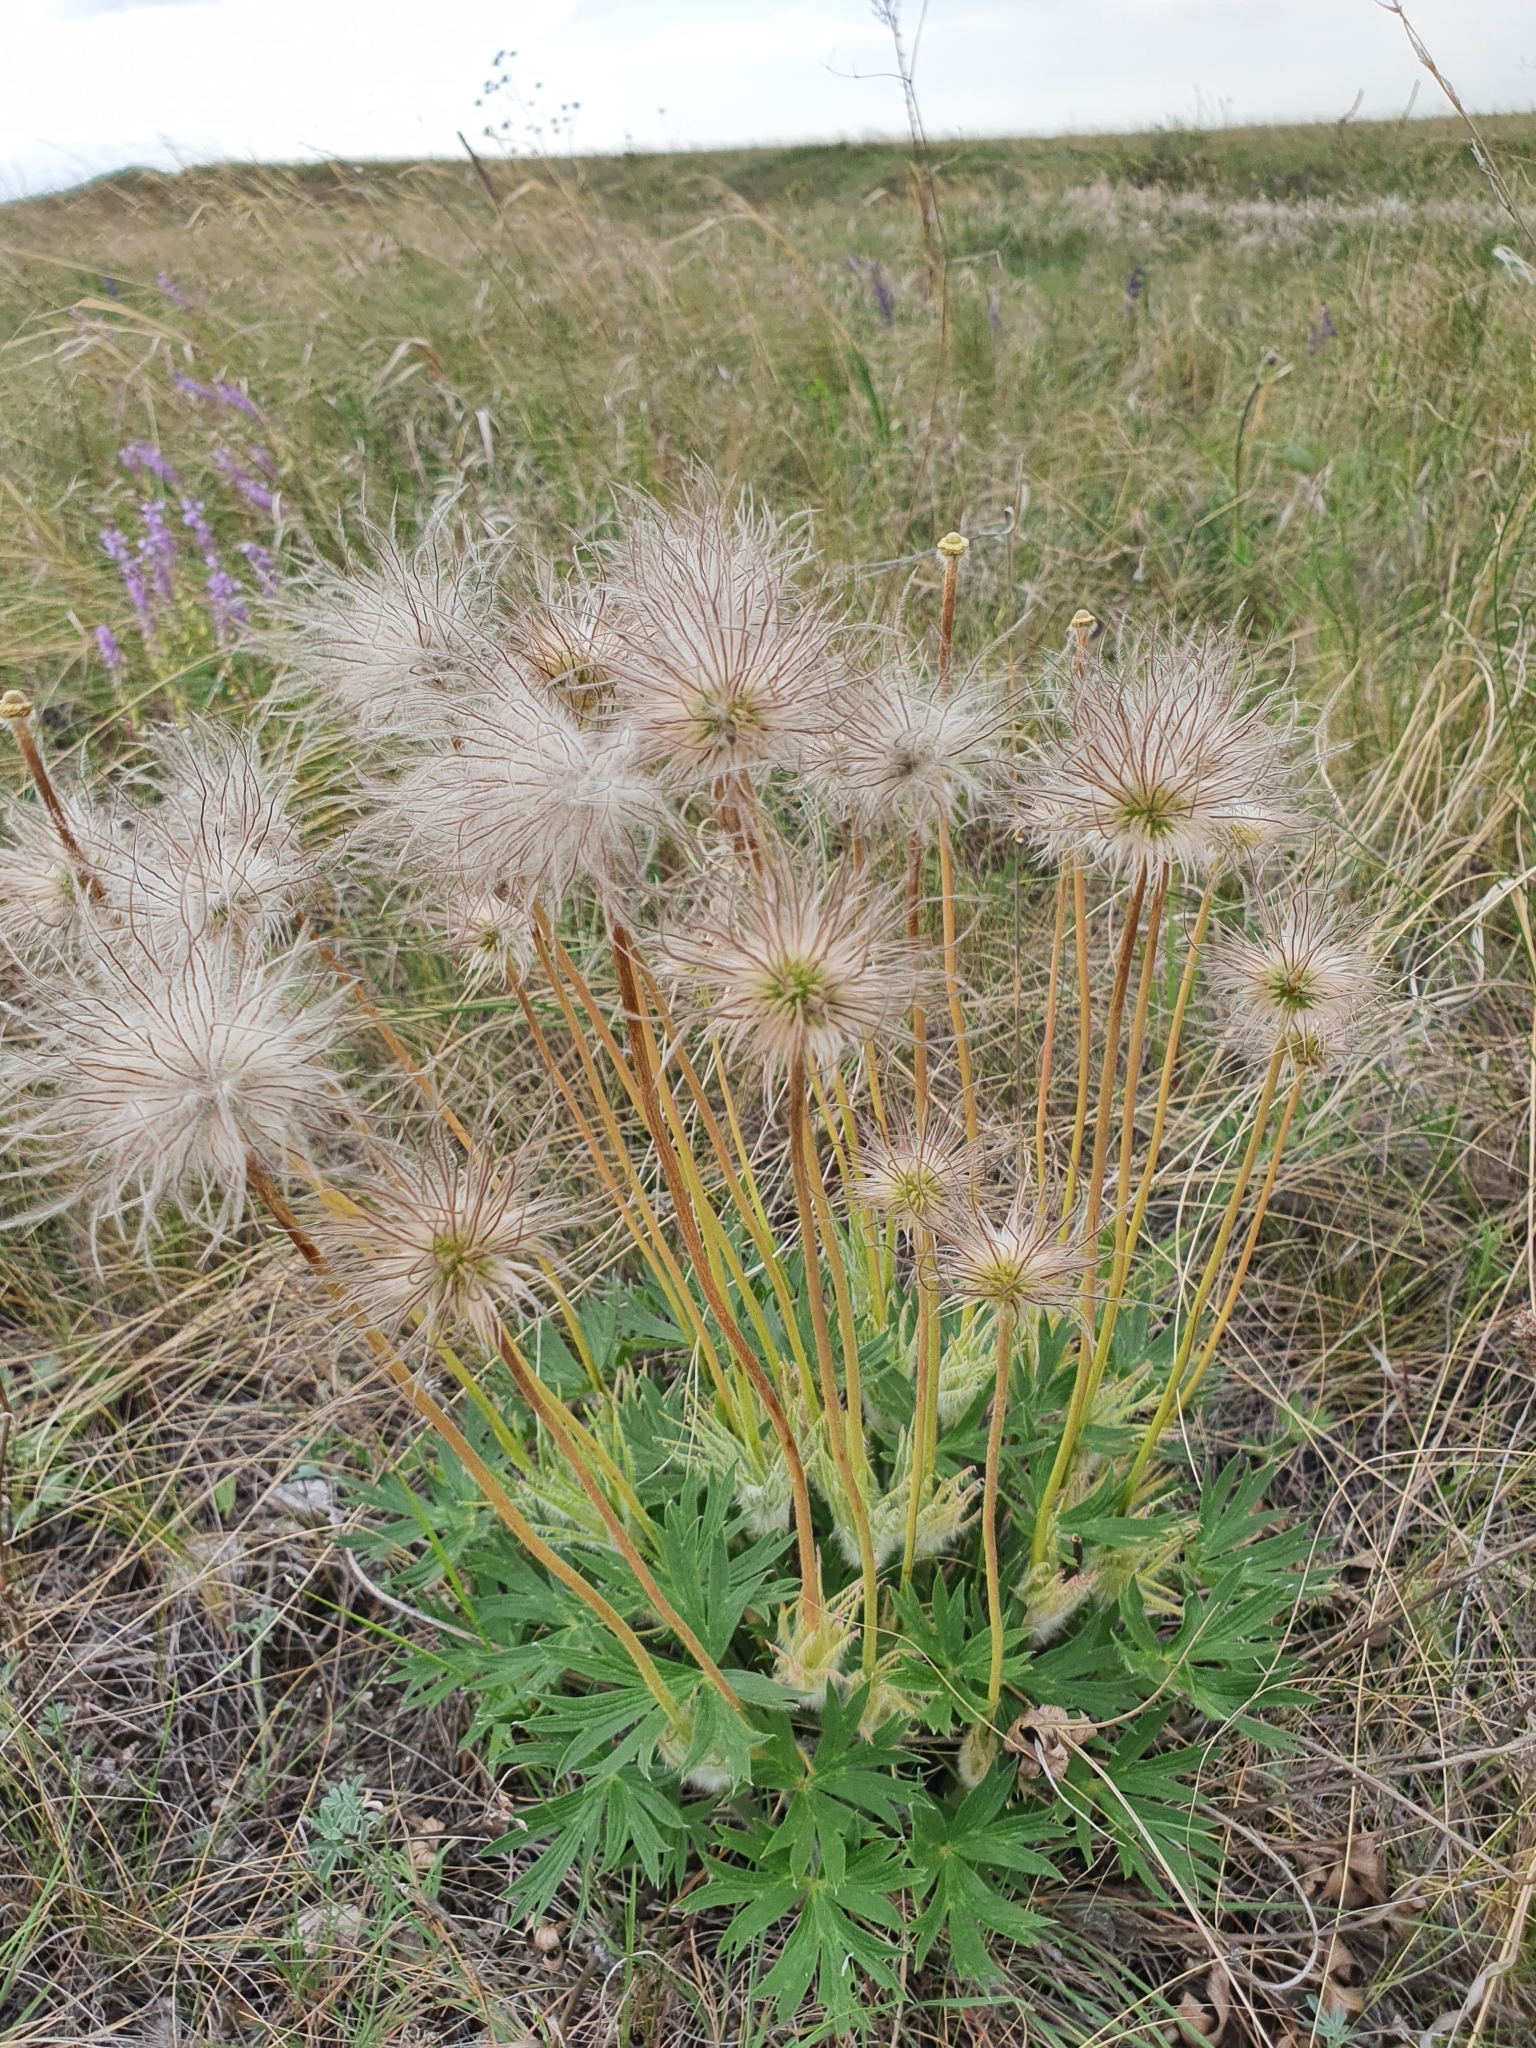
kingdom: Plantae
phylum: Tracheophyta
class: Magnoliopsida
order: Ranunculales
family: Ranunculaceae
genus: Pulsatilla
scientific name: Pulsatilla patens
